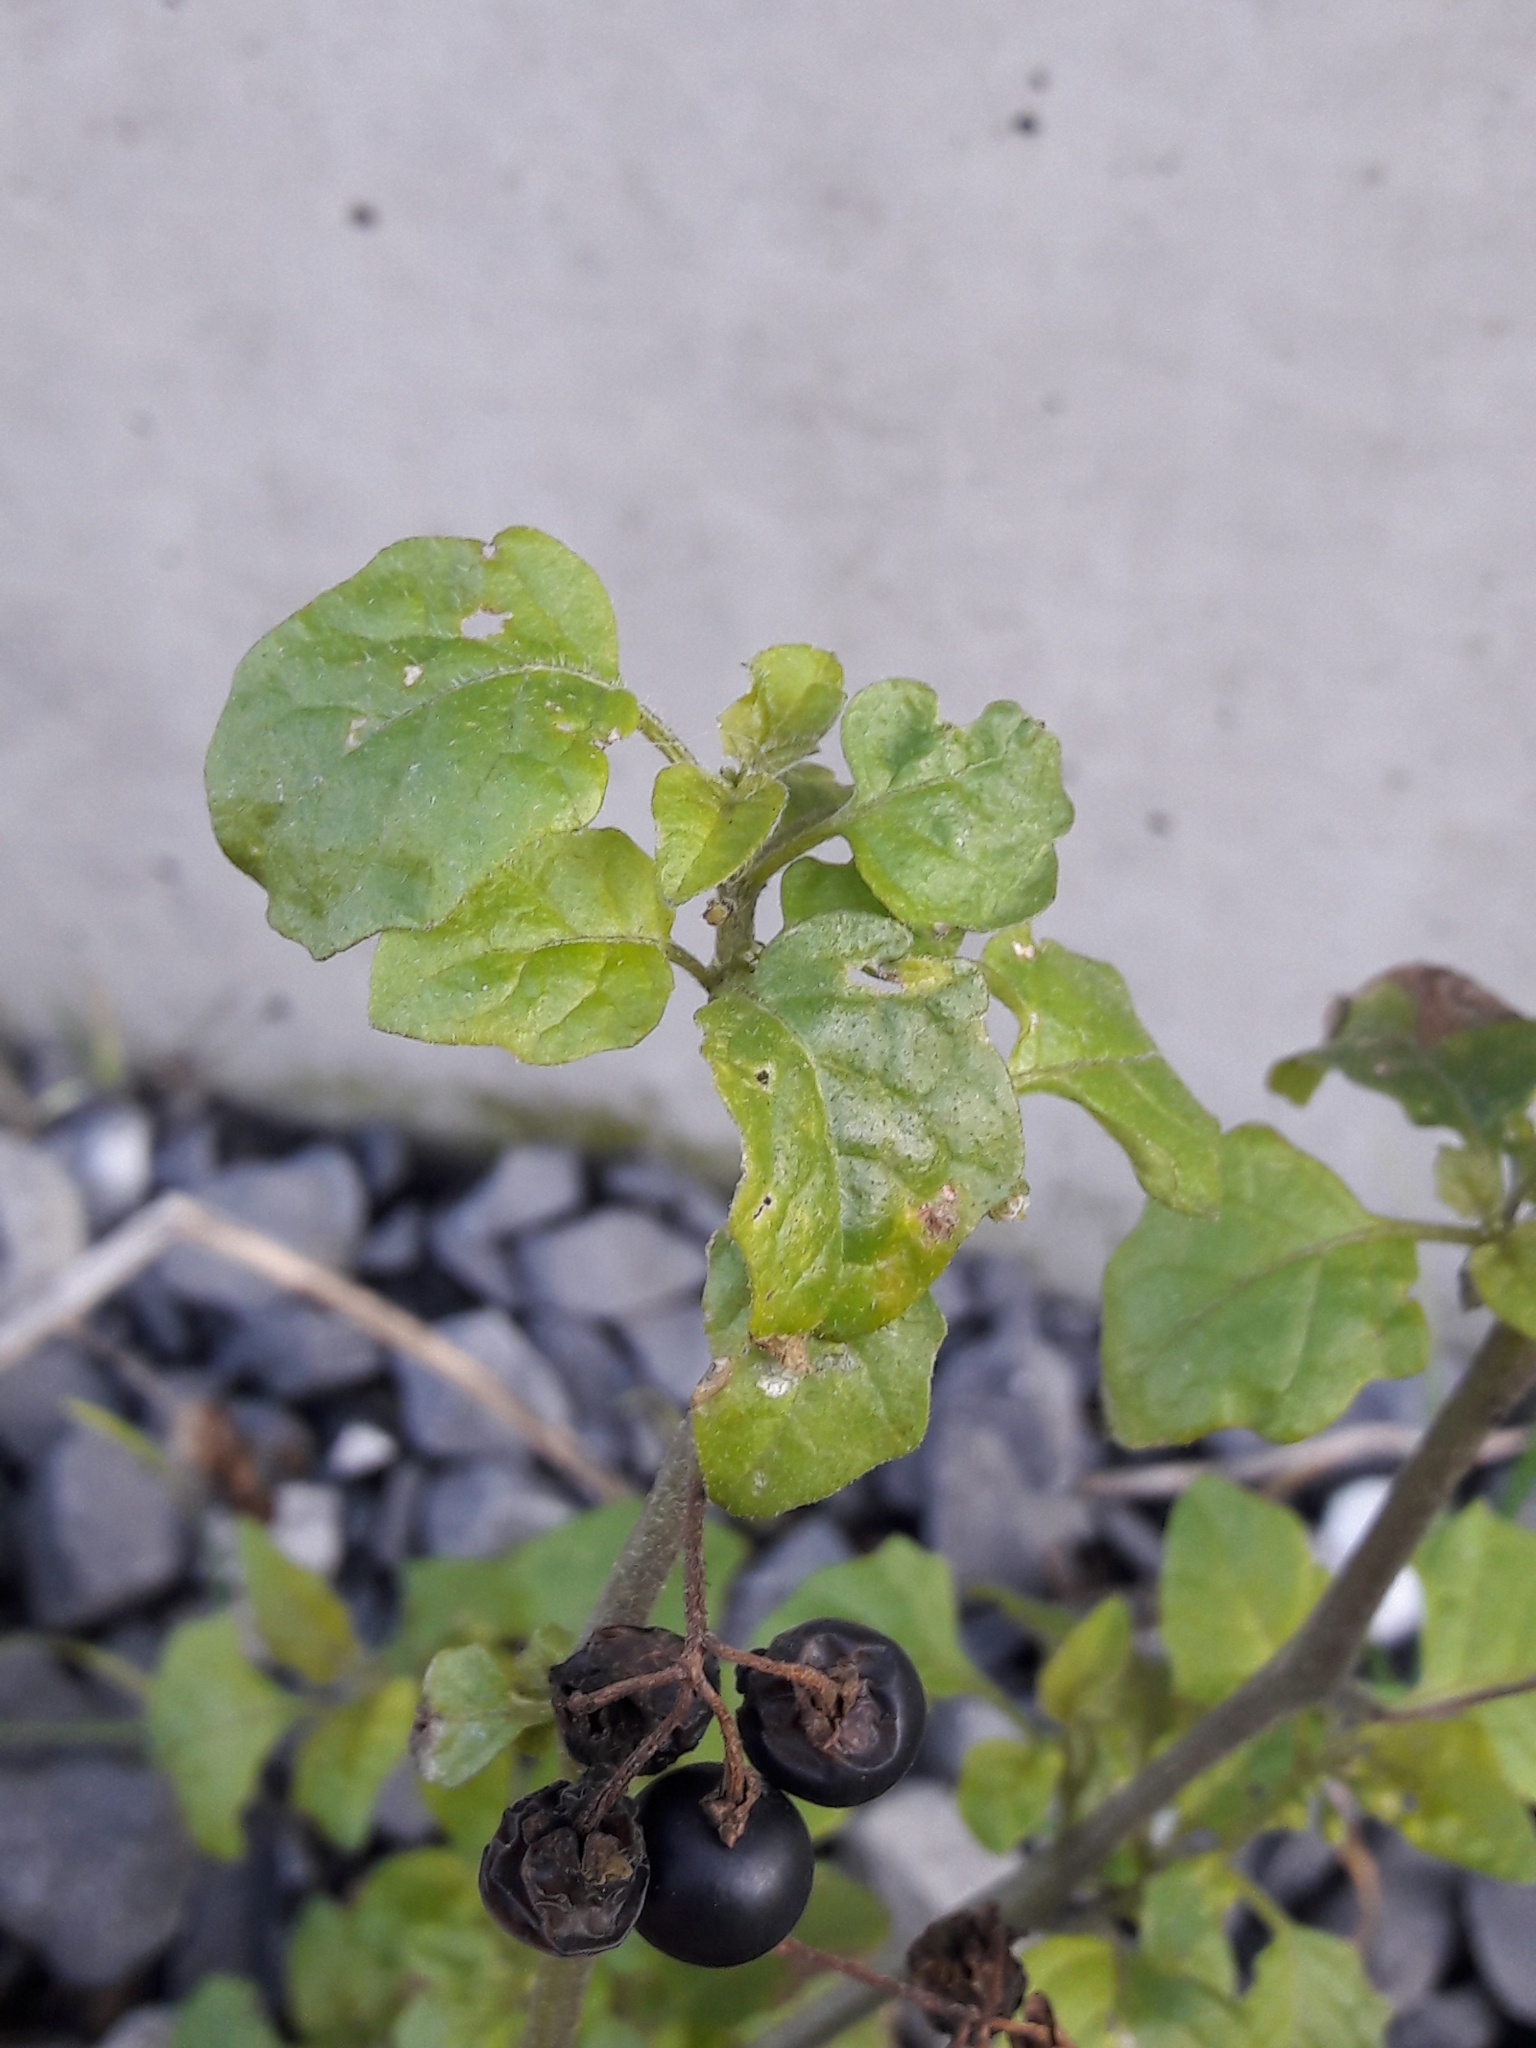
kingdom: Plantae
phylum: Tracheophyta
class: Magnoliopsida
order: Solanales
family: Solanaceae
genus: Solanum
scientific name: Solanum nigrum
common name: Black nightshade
